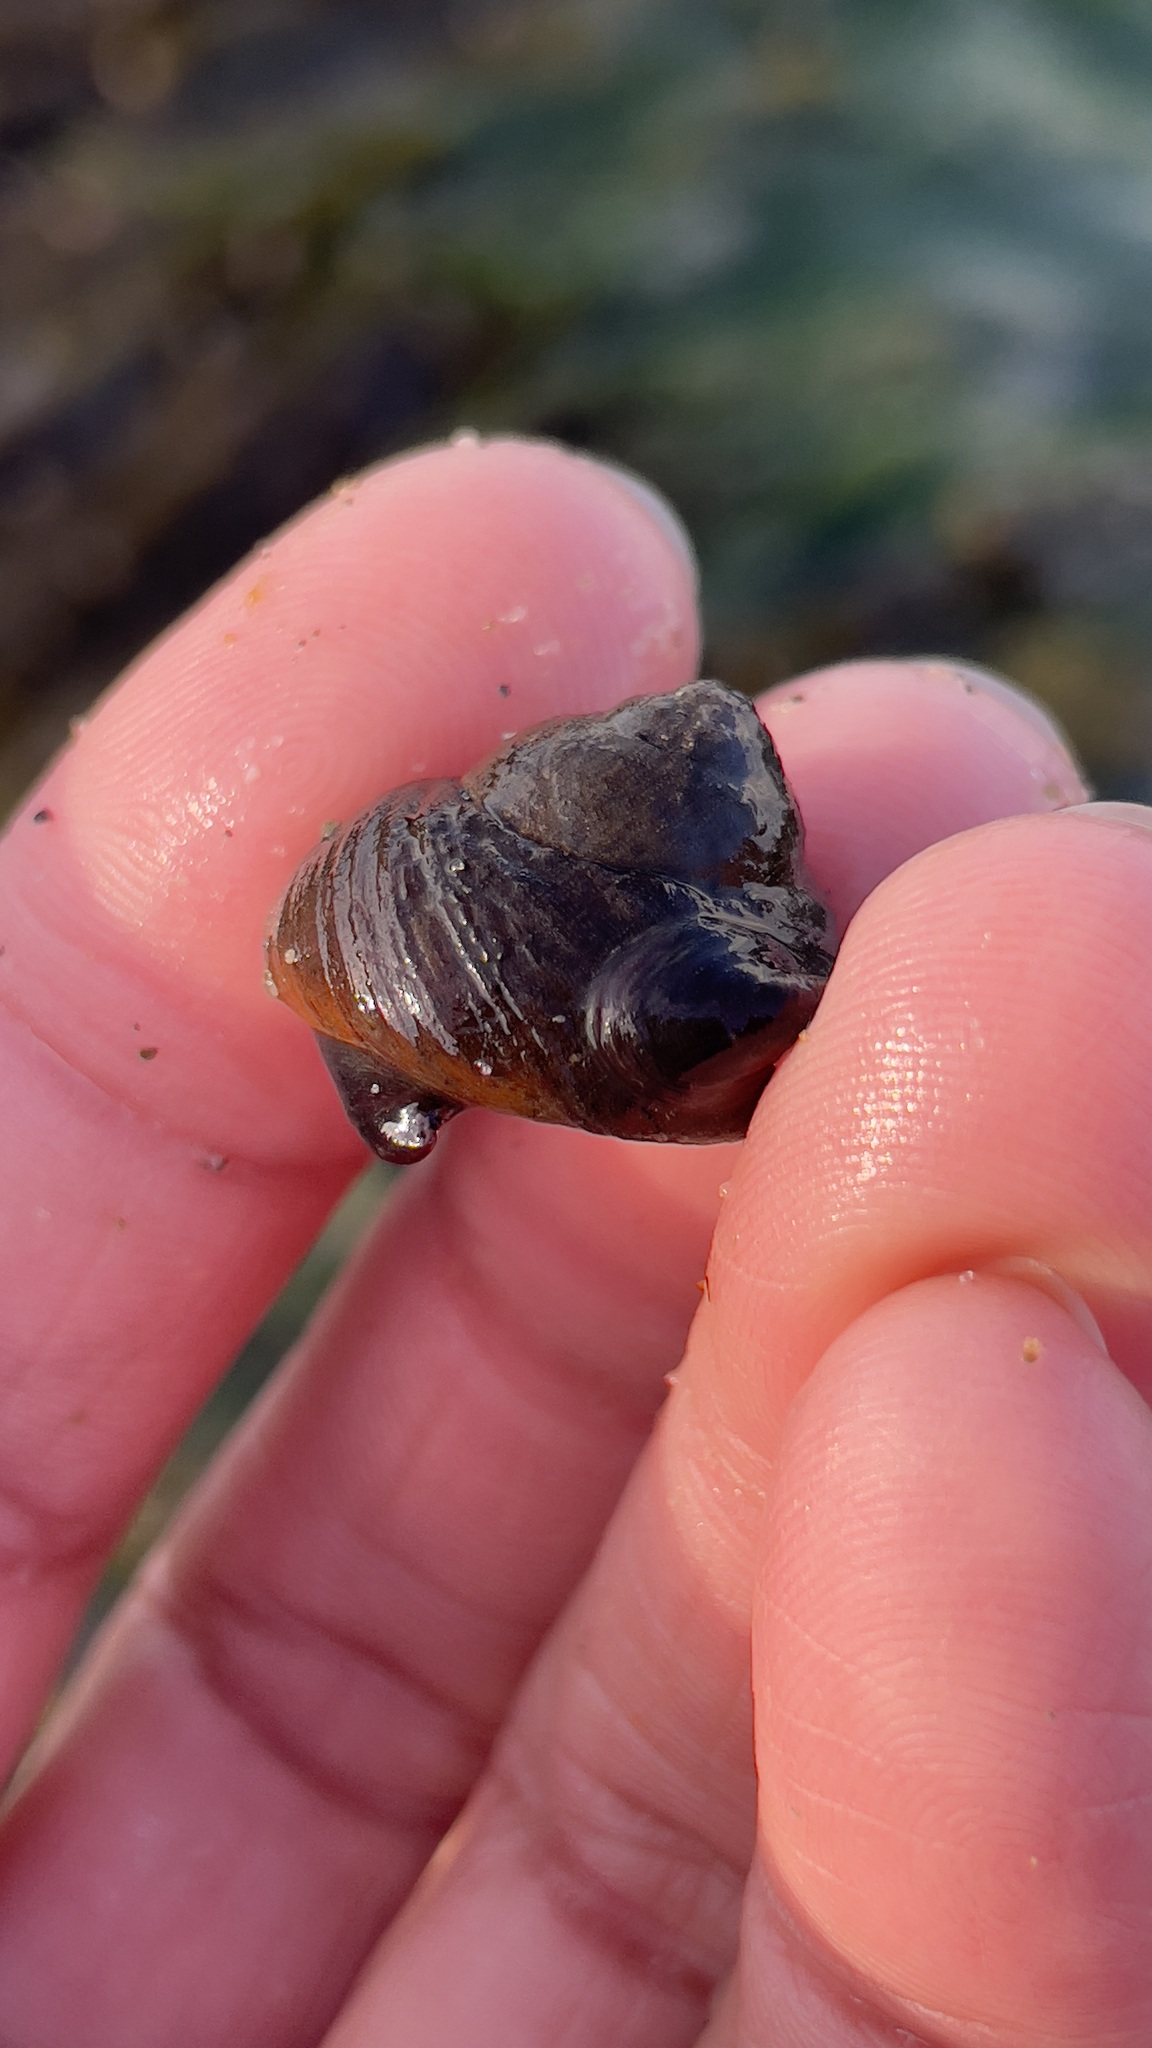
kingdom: Animalia
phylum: Mollusca
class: Gastropoda
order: Trochida
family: Tegulidae
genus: Tegula
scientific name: Tegula brunnea
